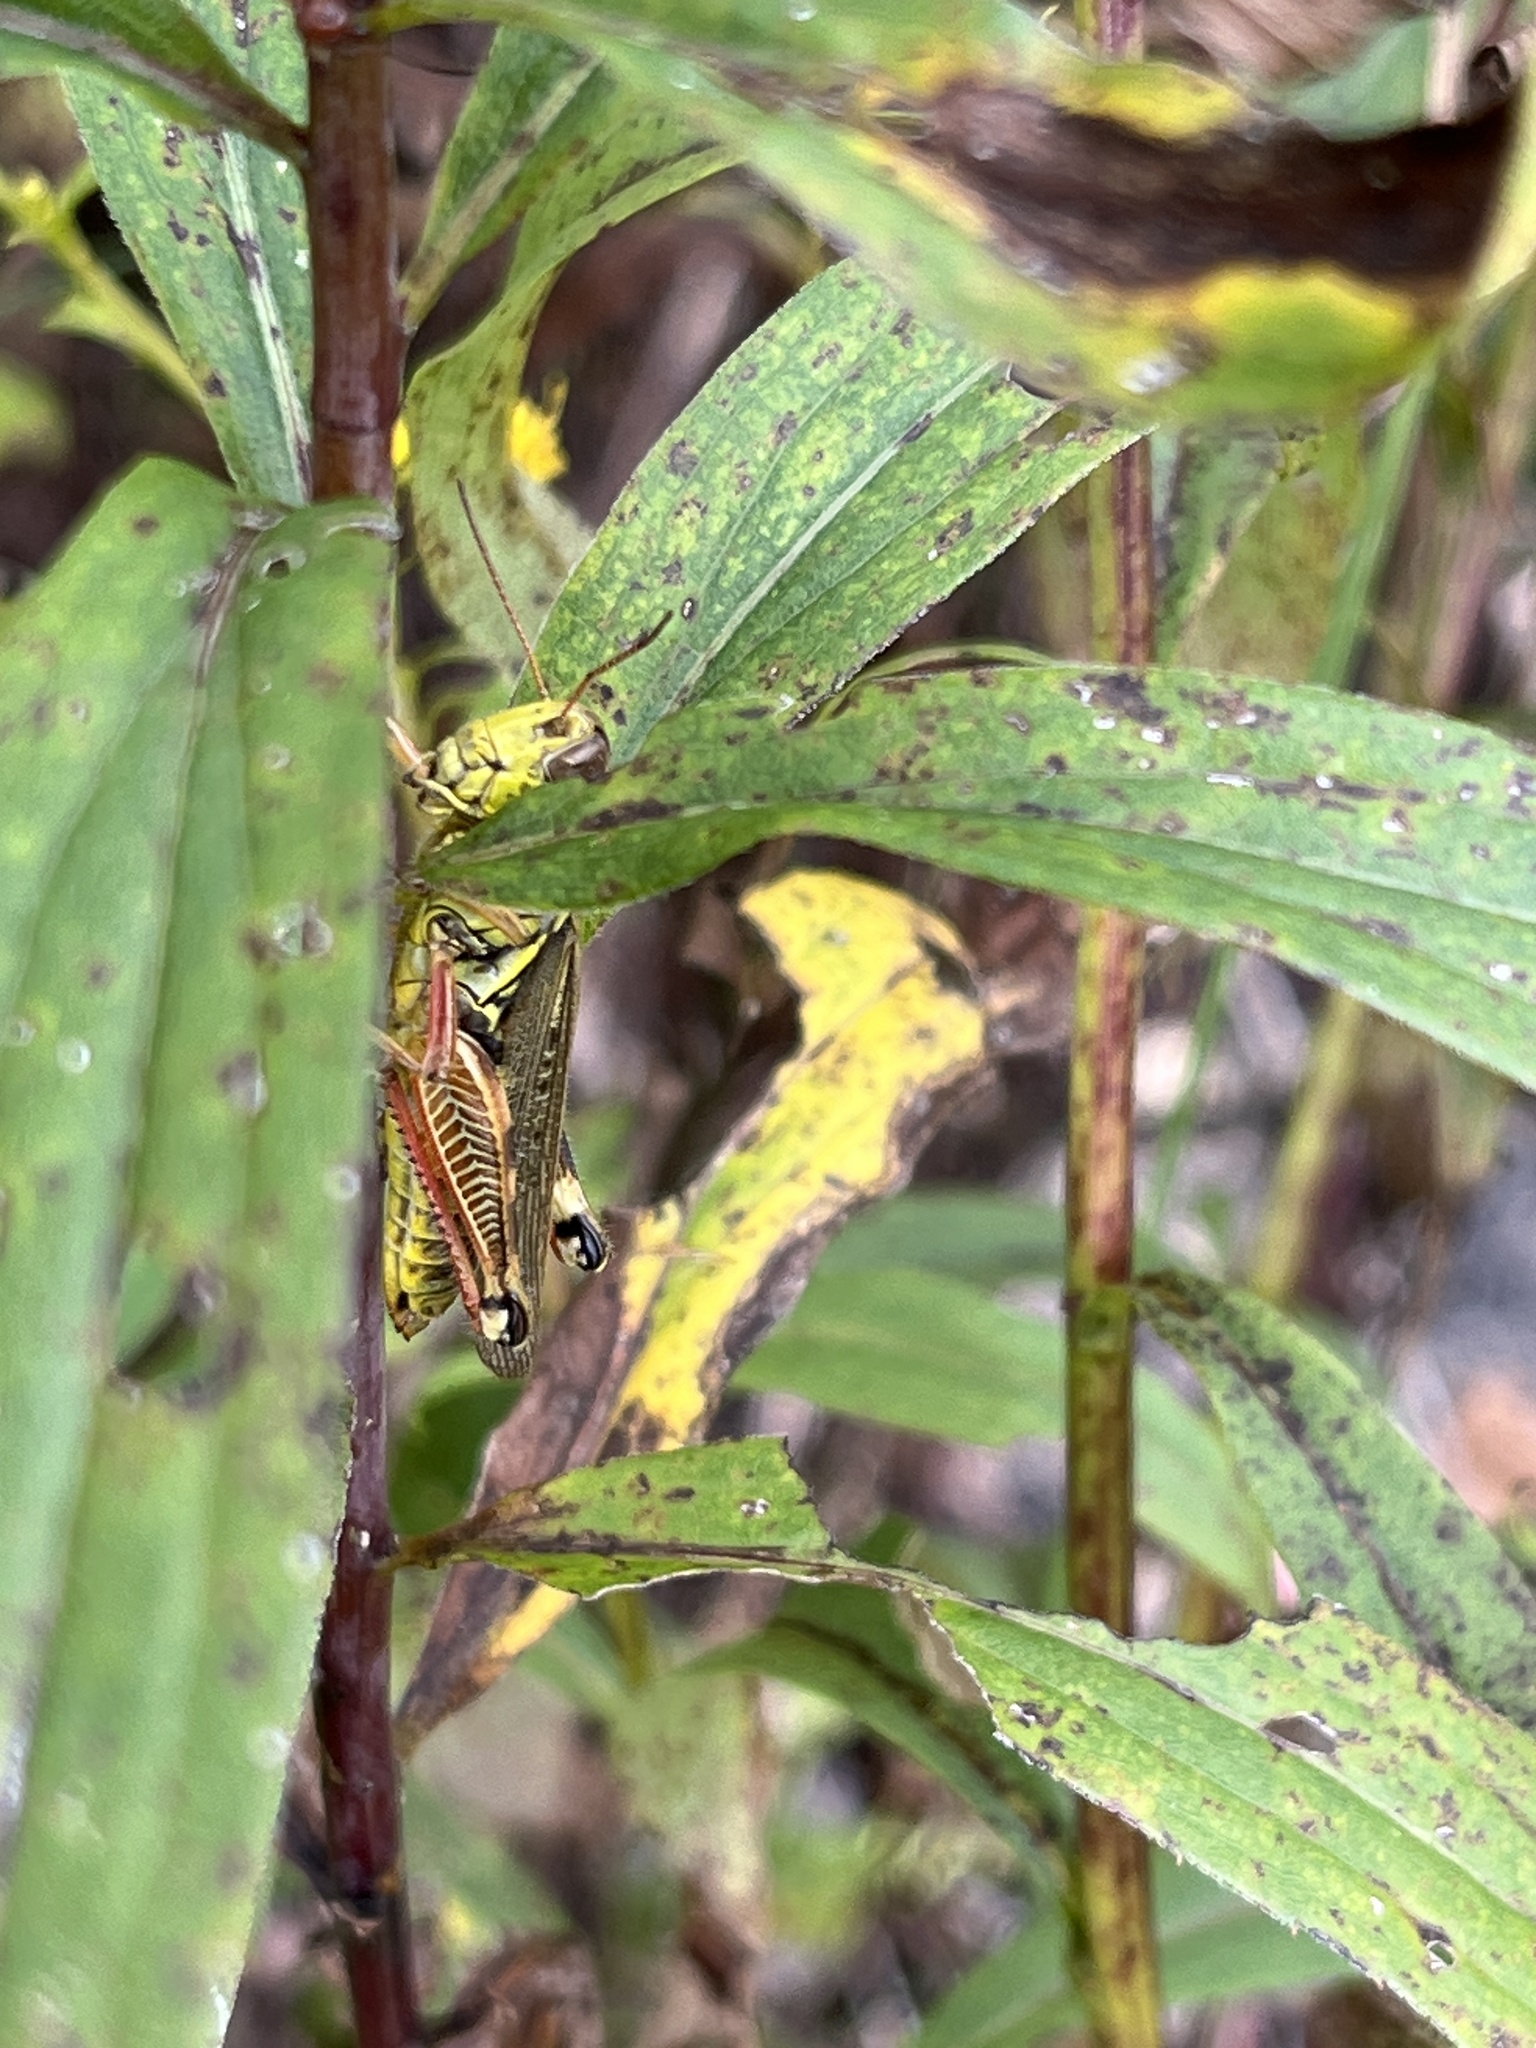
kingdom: Animalia
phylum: Arthropoda
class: Insecta
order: Orthoptera
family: Acrididae
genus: Melanoplus
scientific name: Melanoplus femurrubrum
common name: Red-legged grasshopper
